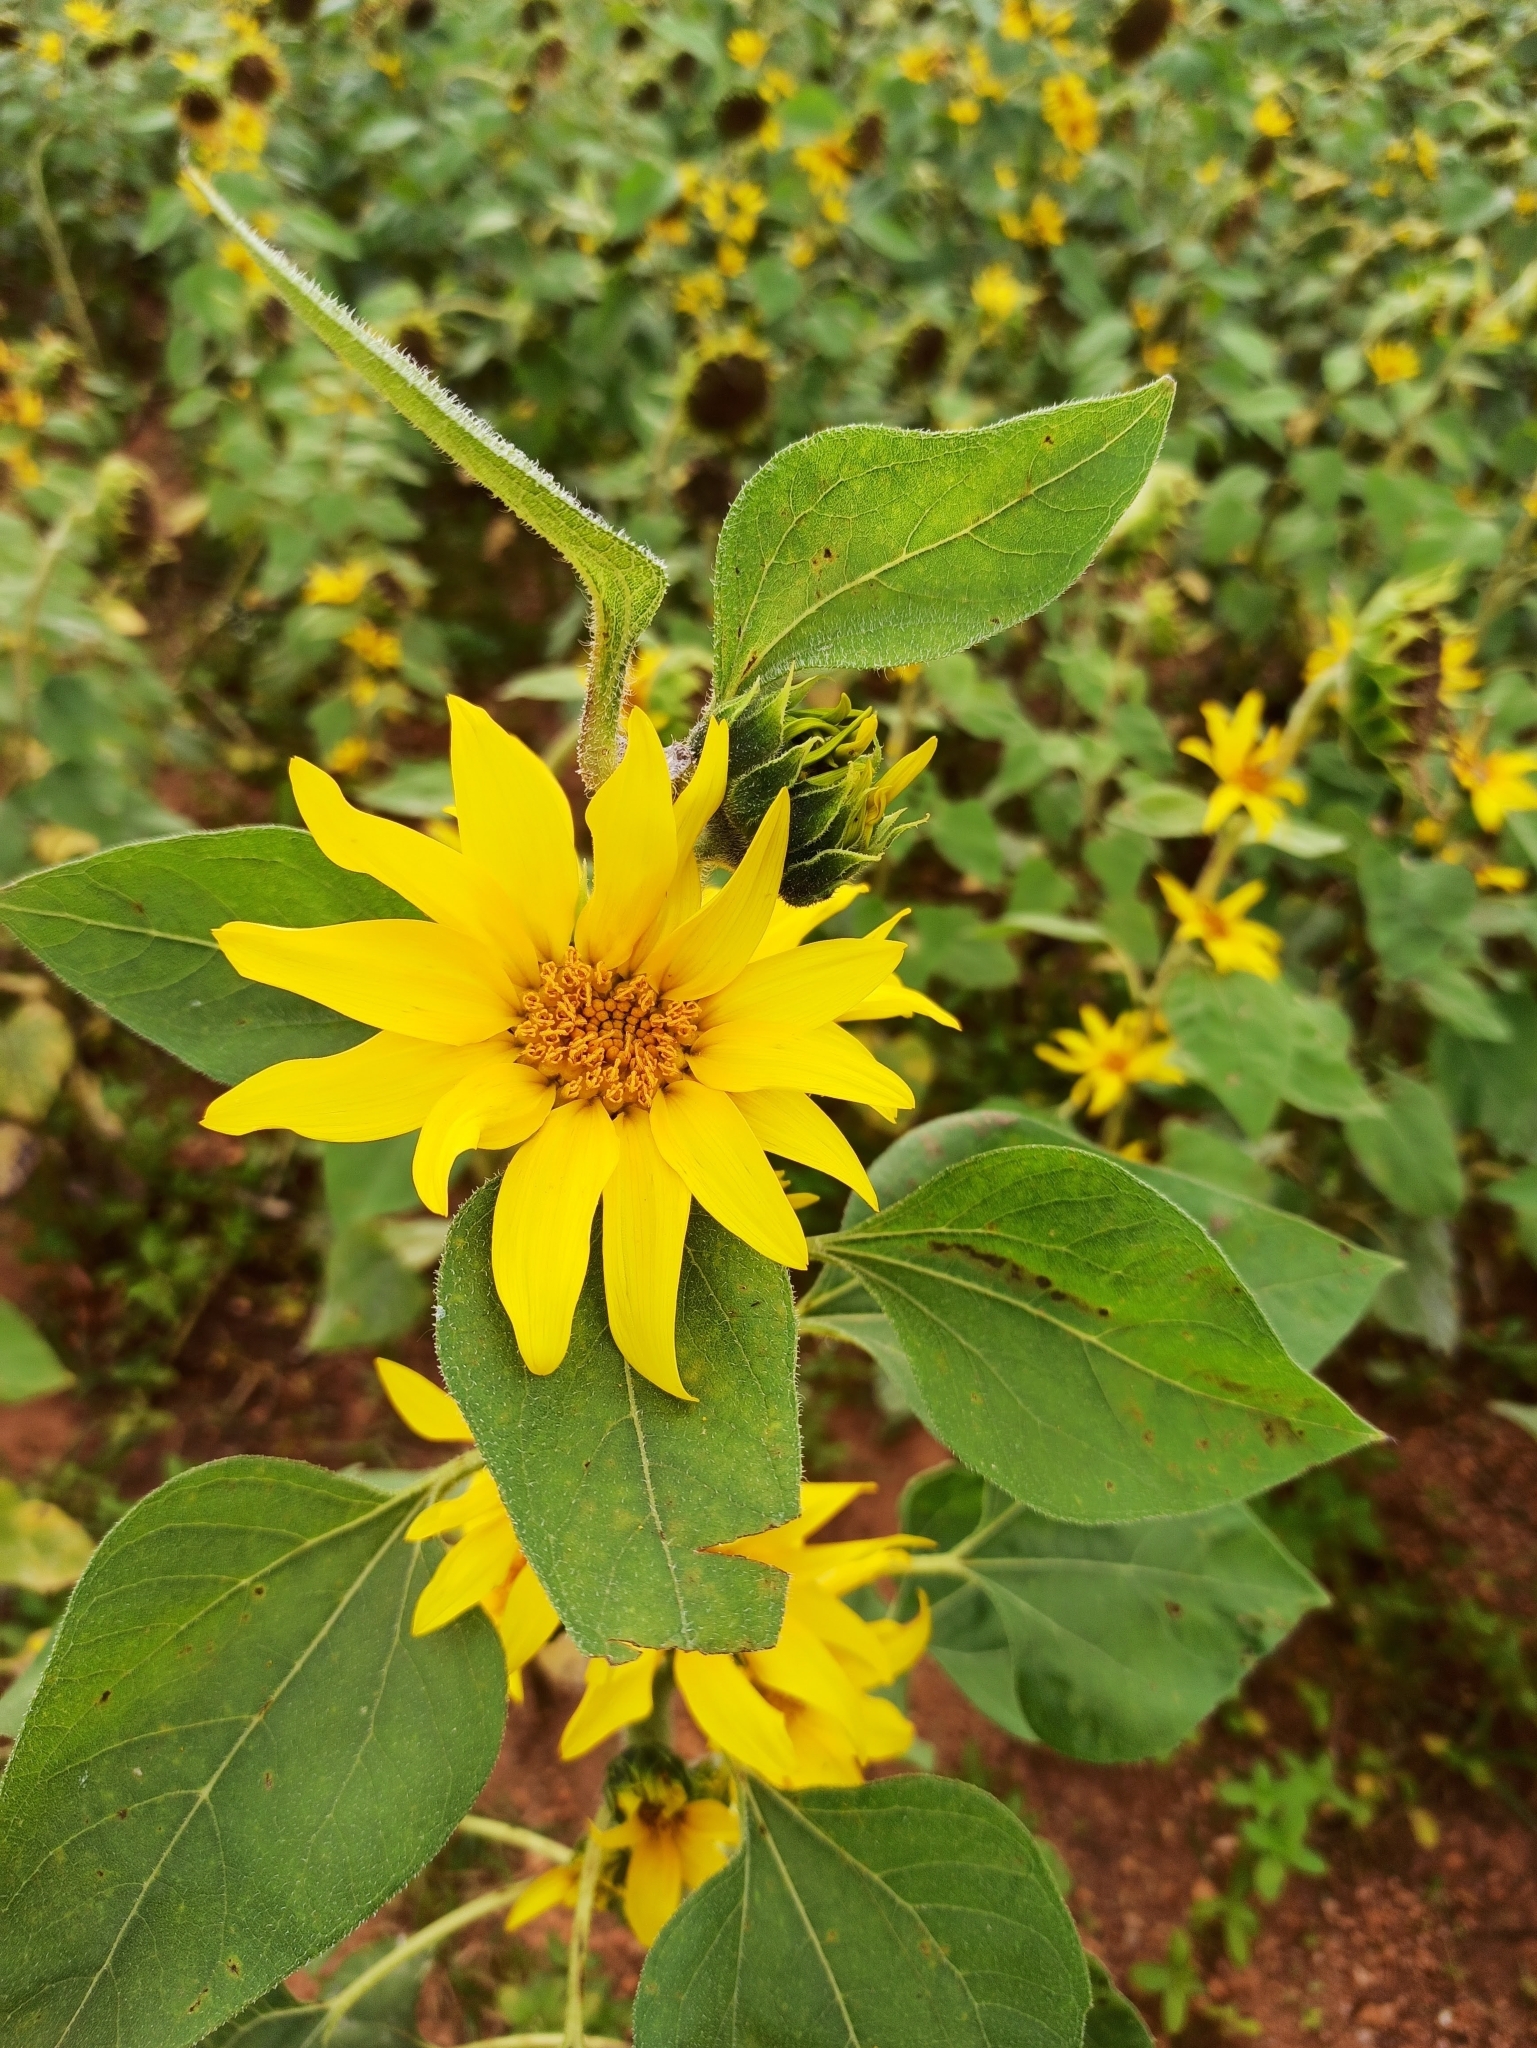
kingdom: Plantae
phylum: Tracheophyta
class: Magnoliopsida
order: Asterales
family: Asteraceae
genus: Helianthus
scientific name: Helianthus annuus
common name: Sunflower
